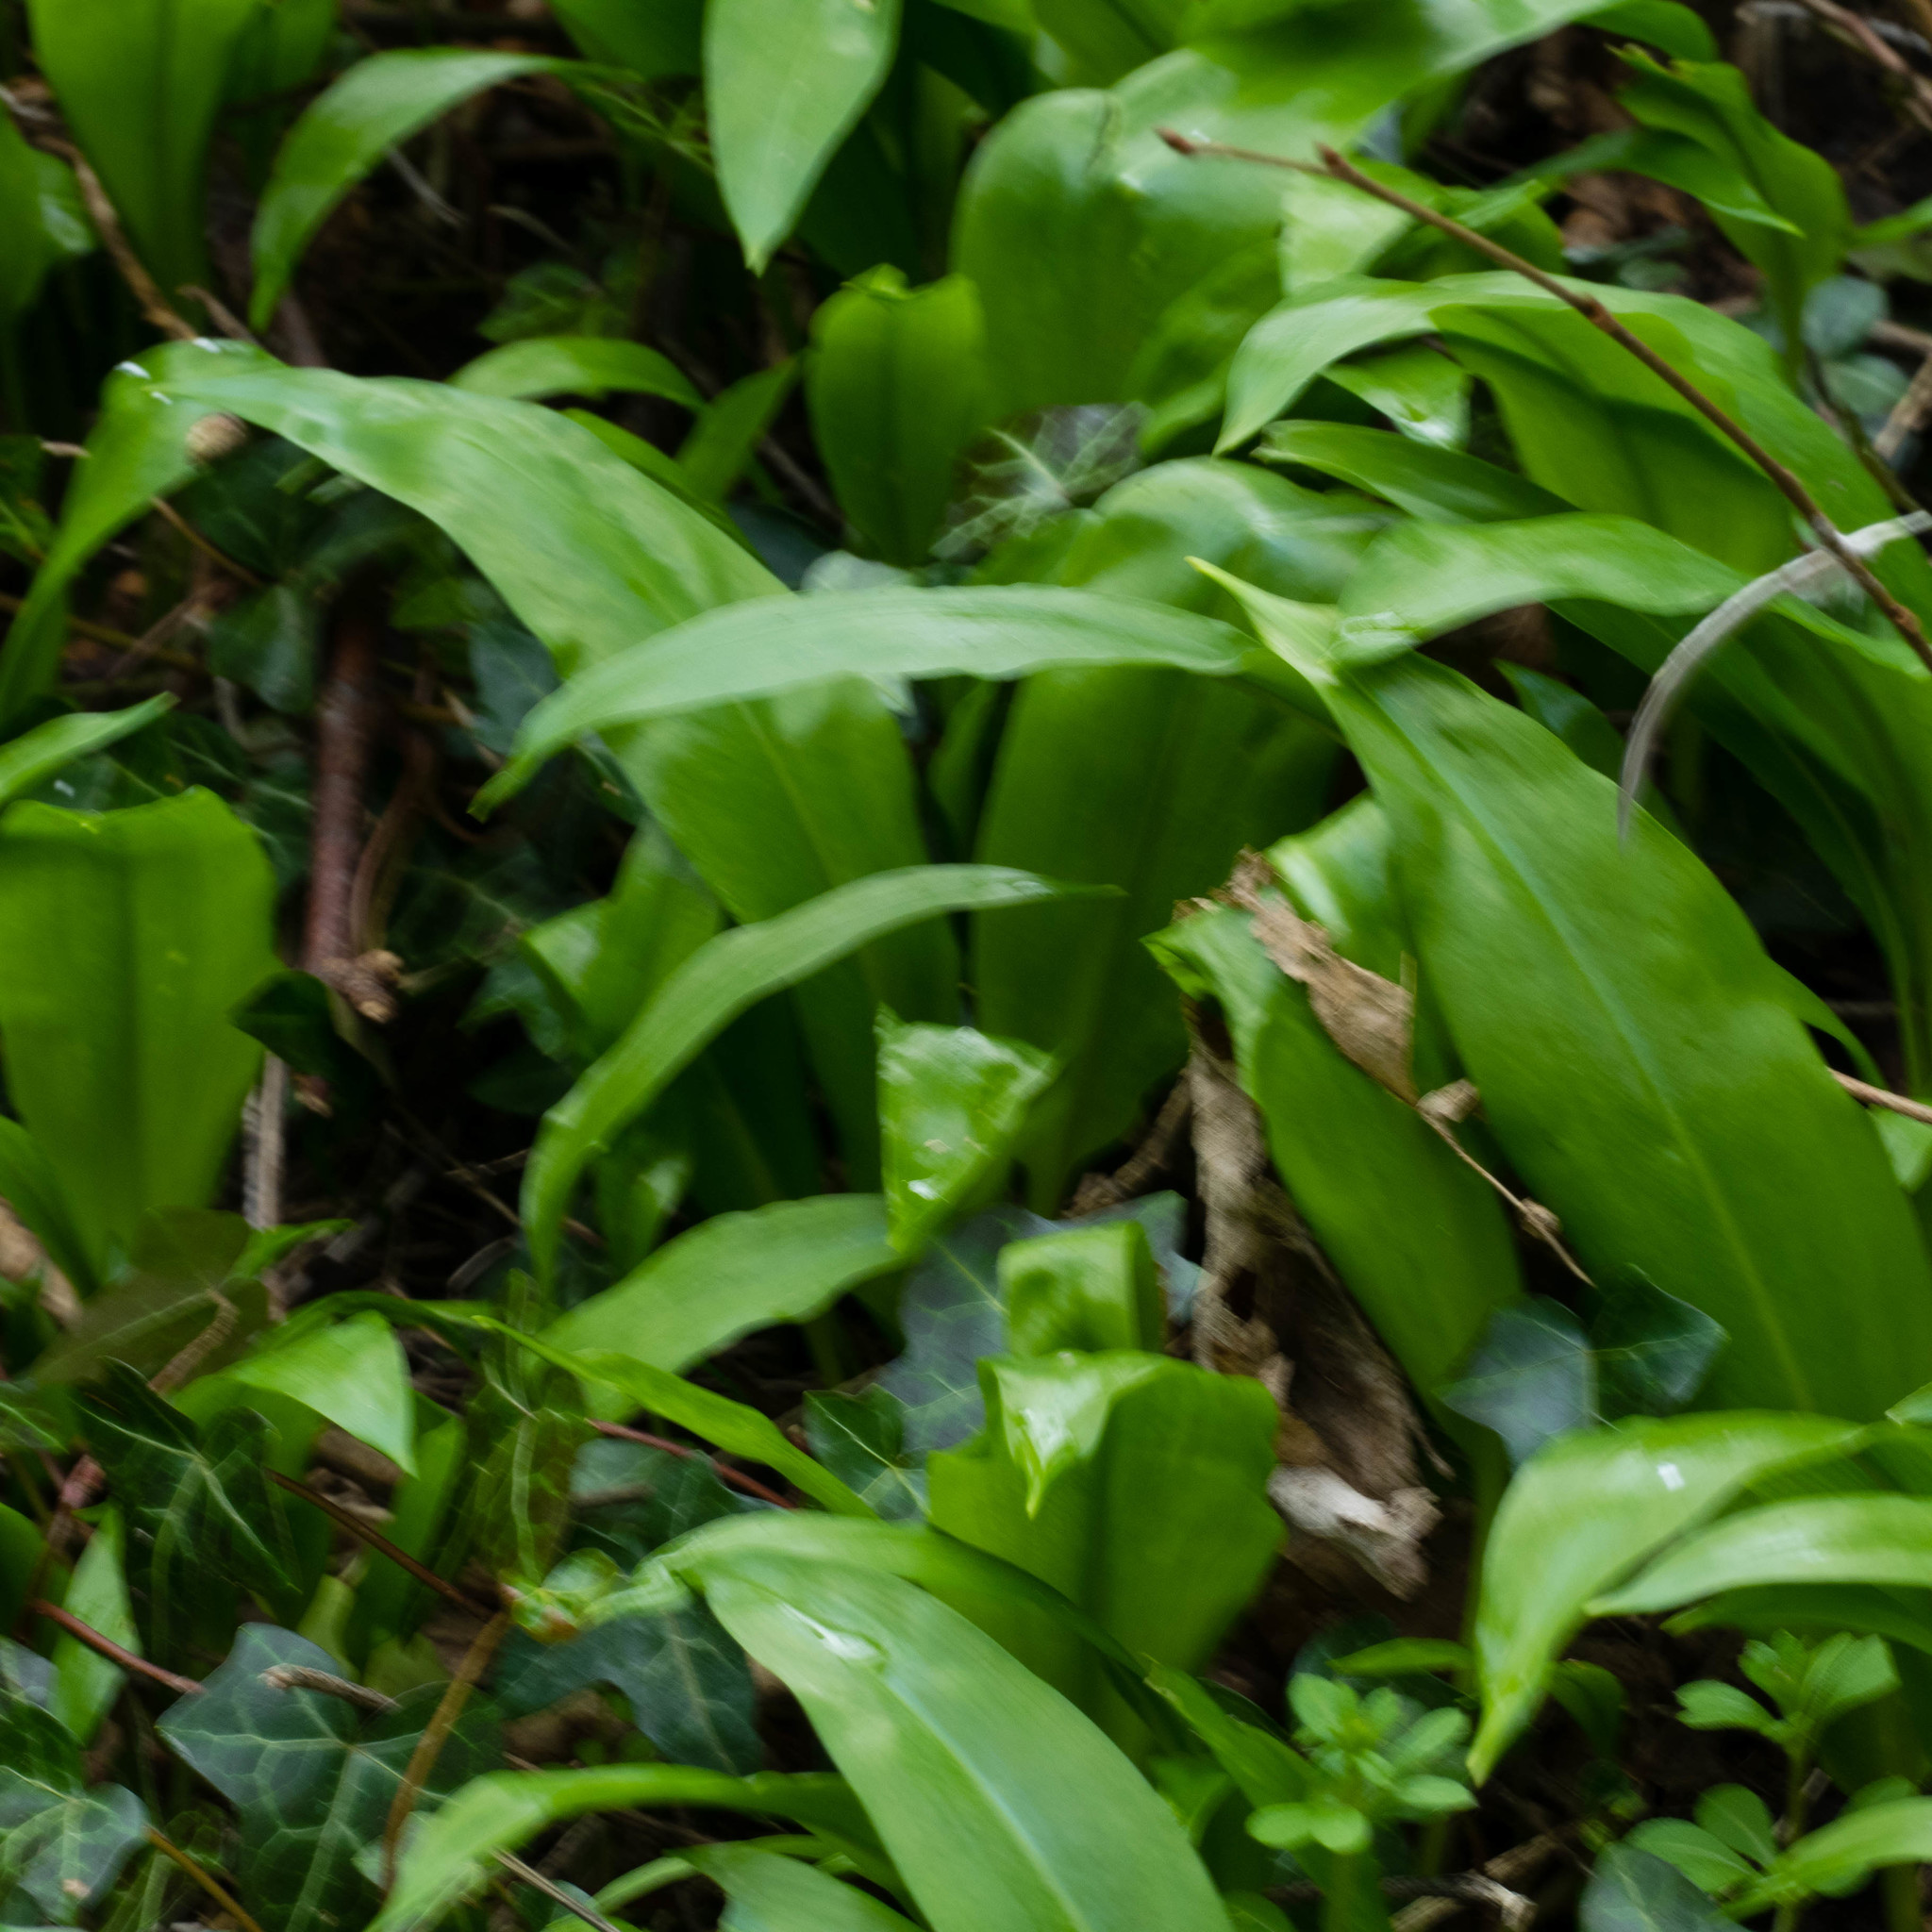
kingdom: Plantae
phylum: Tracheophyta
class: Liliopsida
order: Asparagales
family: Amaryllidaceae
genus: Allium
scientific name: Allium ursinum
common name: Ramsons
